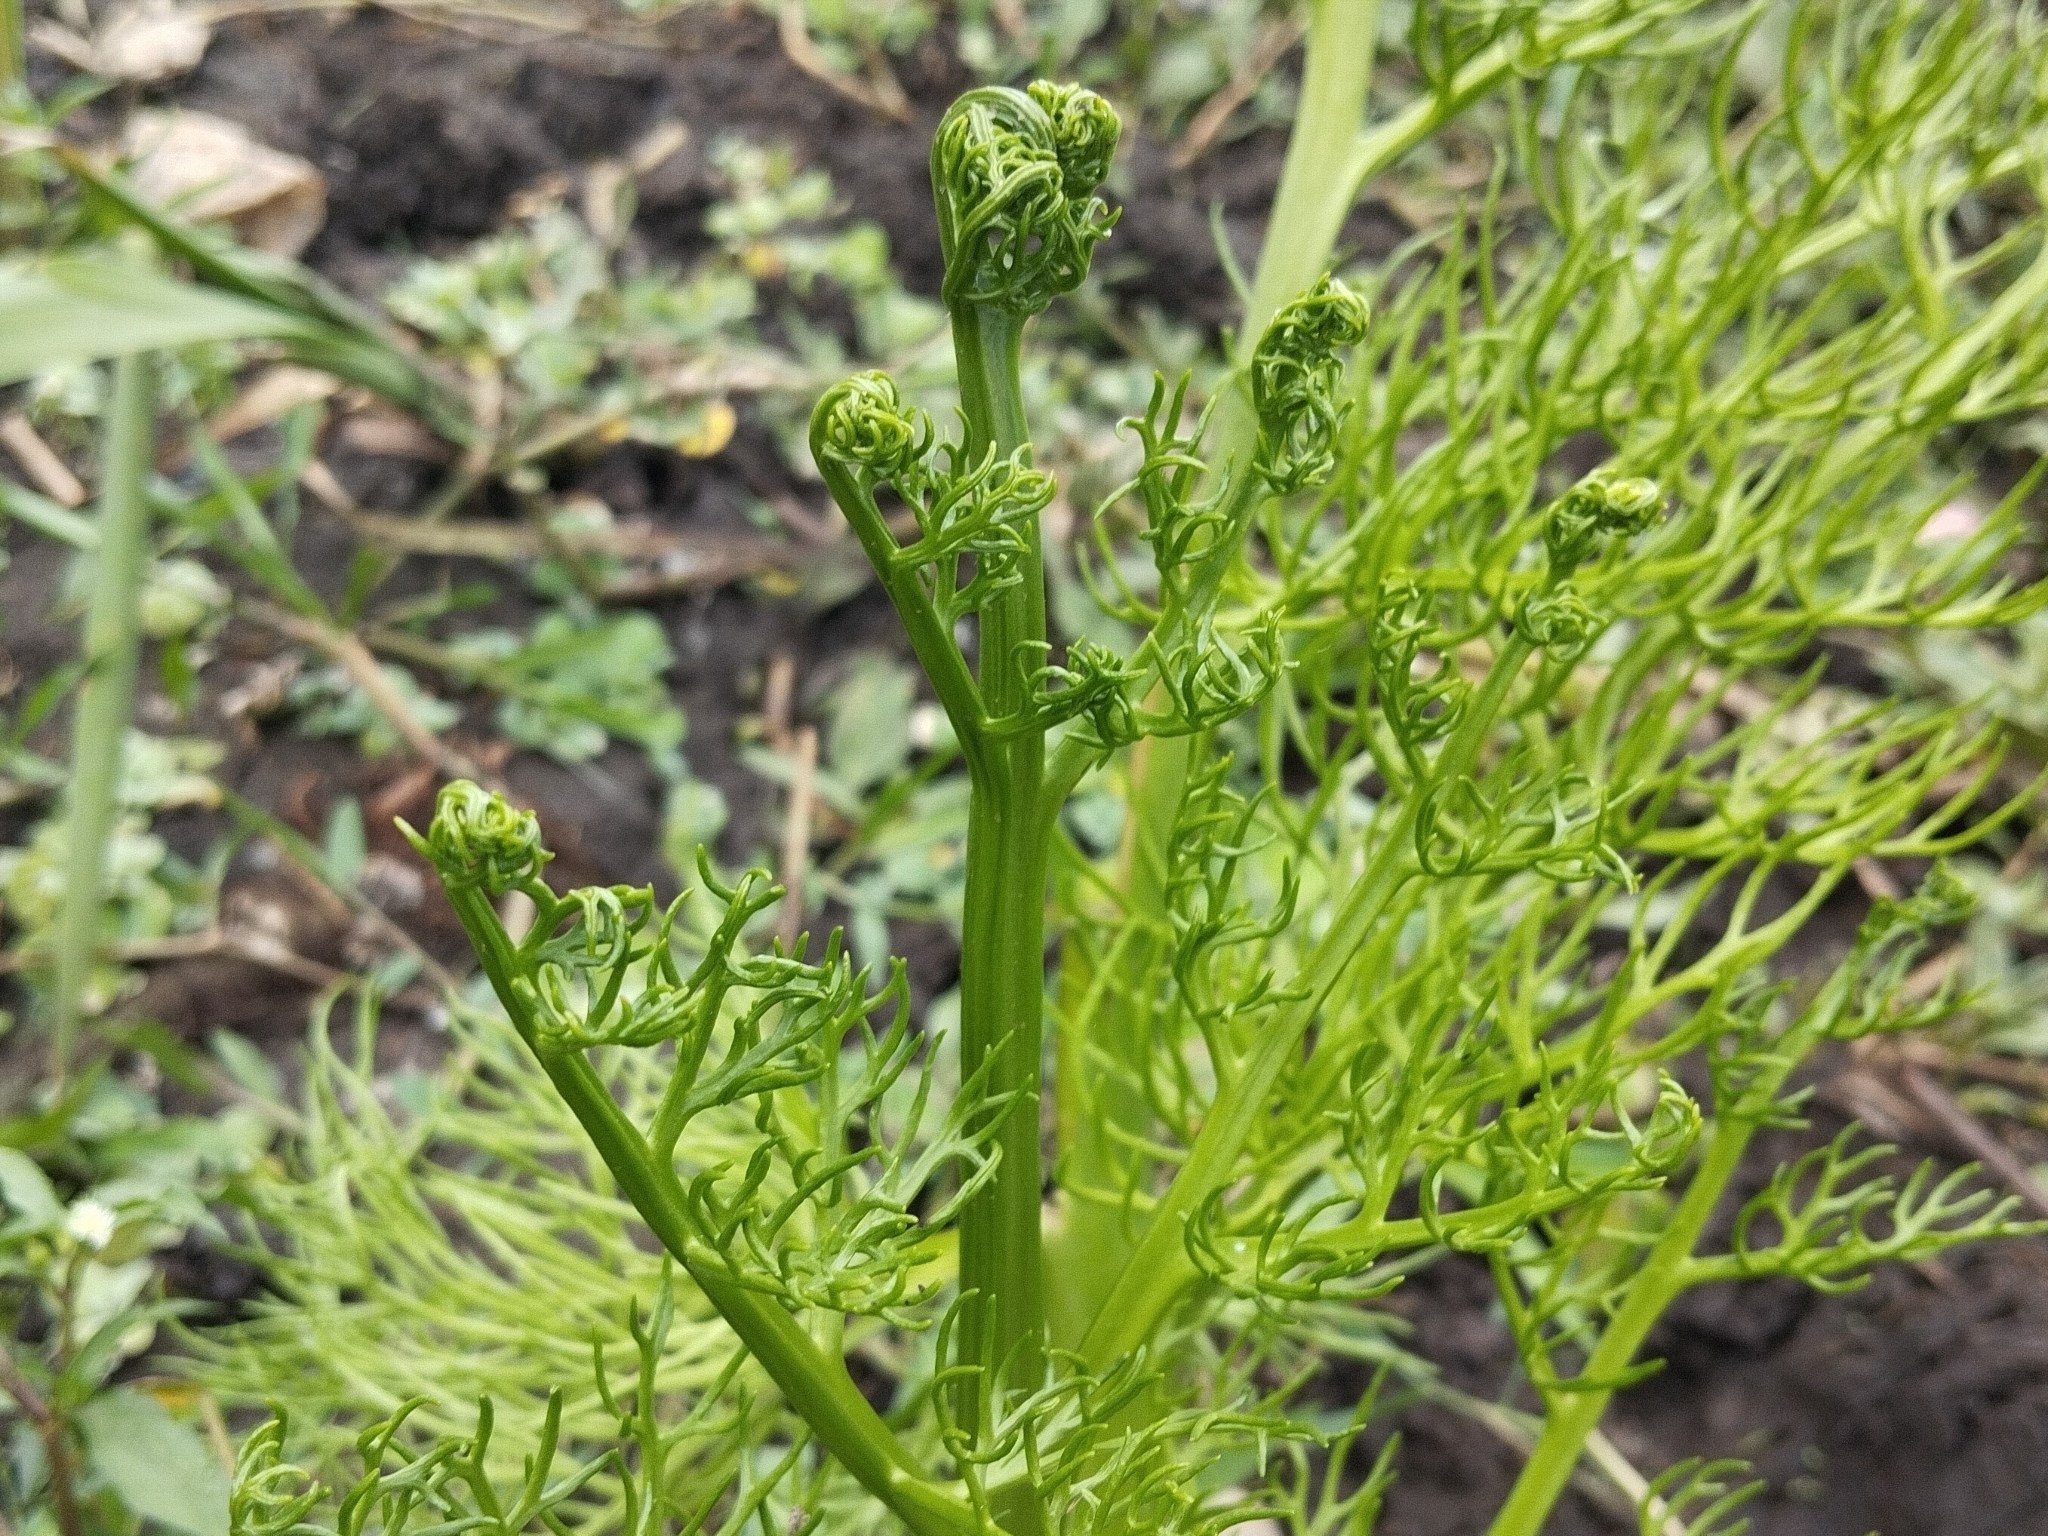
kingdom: Plantae
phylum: Tracheophyta
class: Polypodiopsida
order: Polypodiales
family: Pteridaceae
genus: Ceratopteris
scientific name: Ceratopteris thalictroides
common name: Water fern
